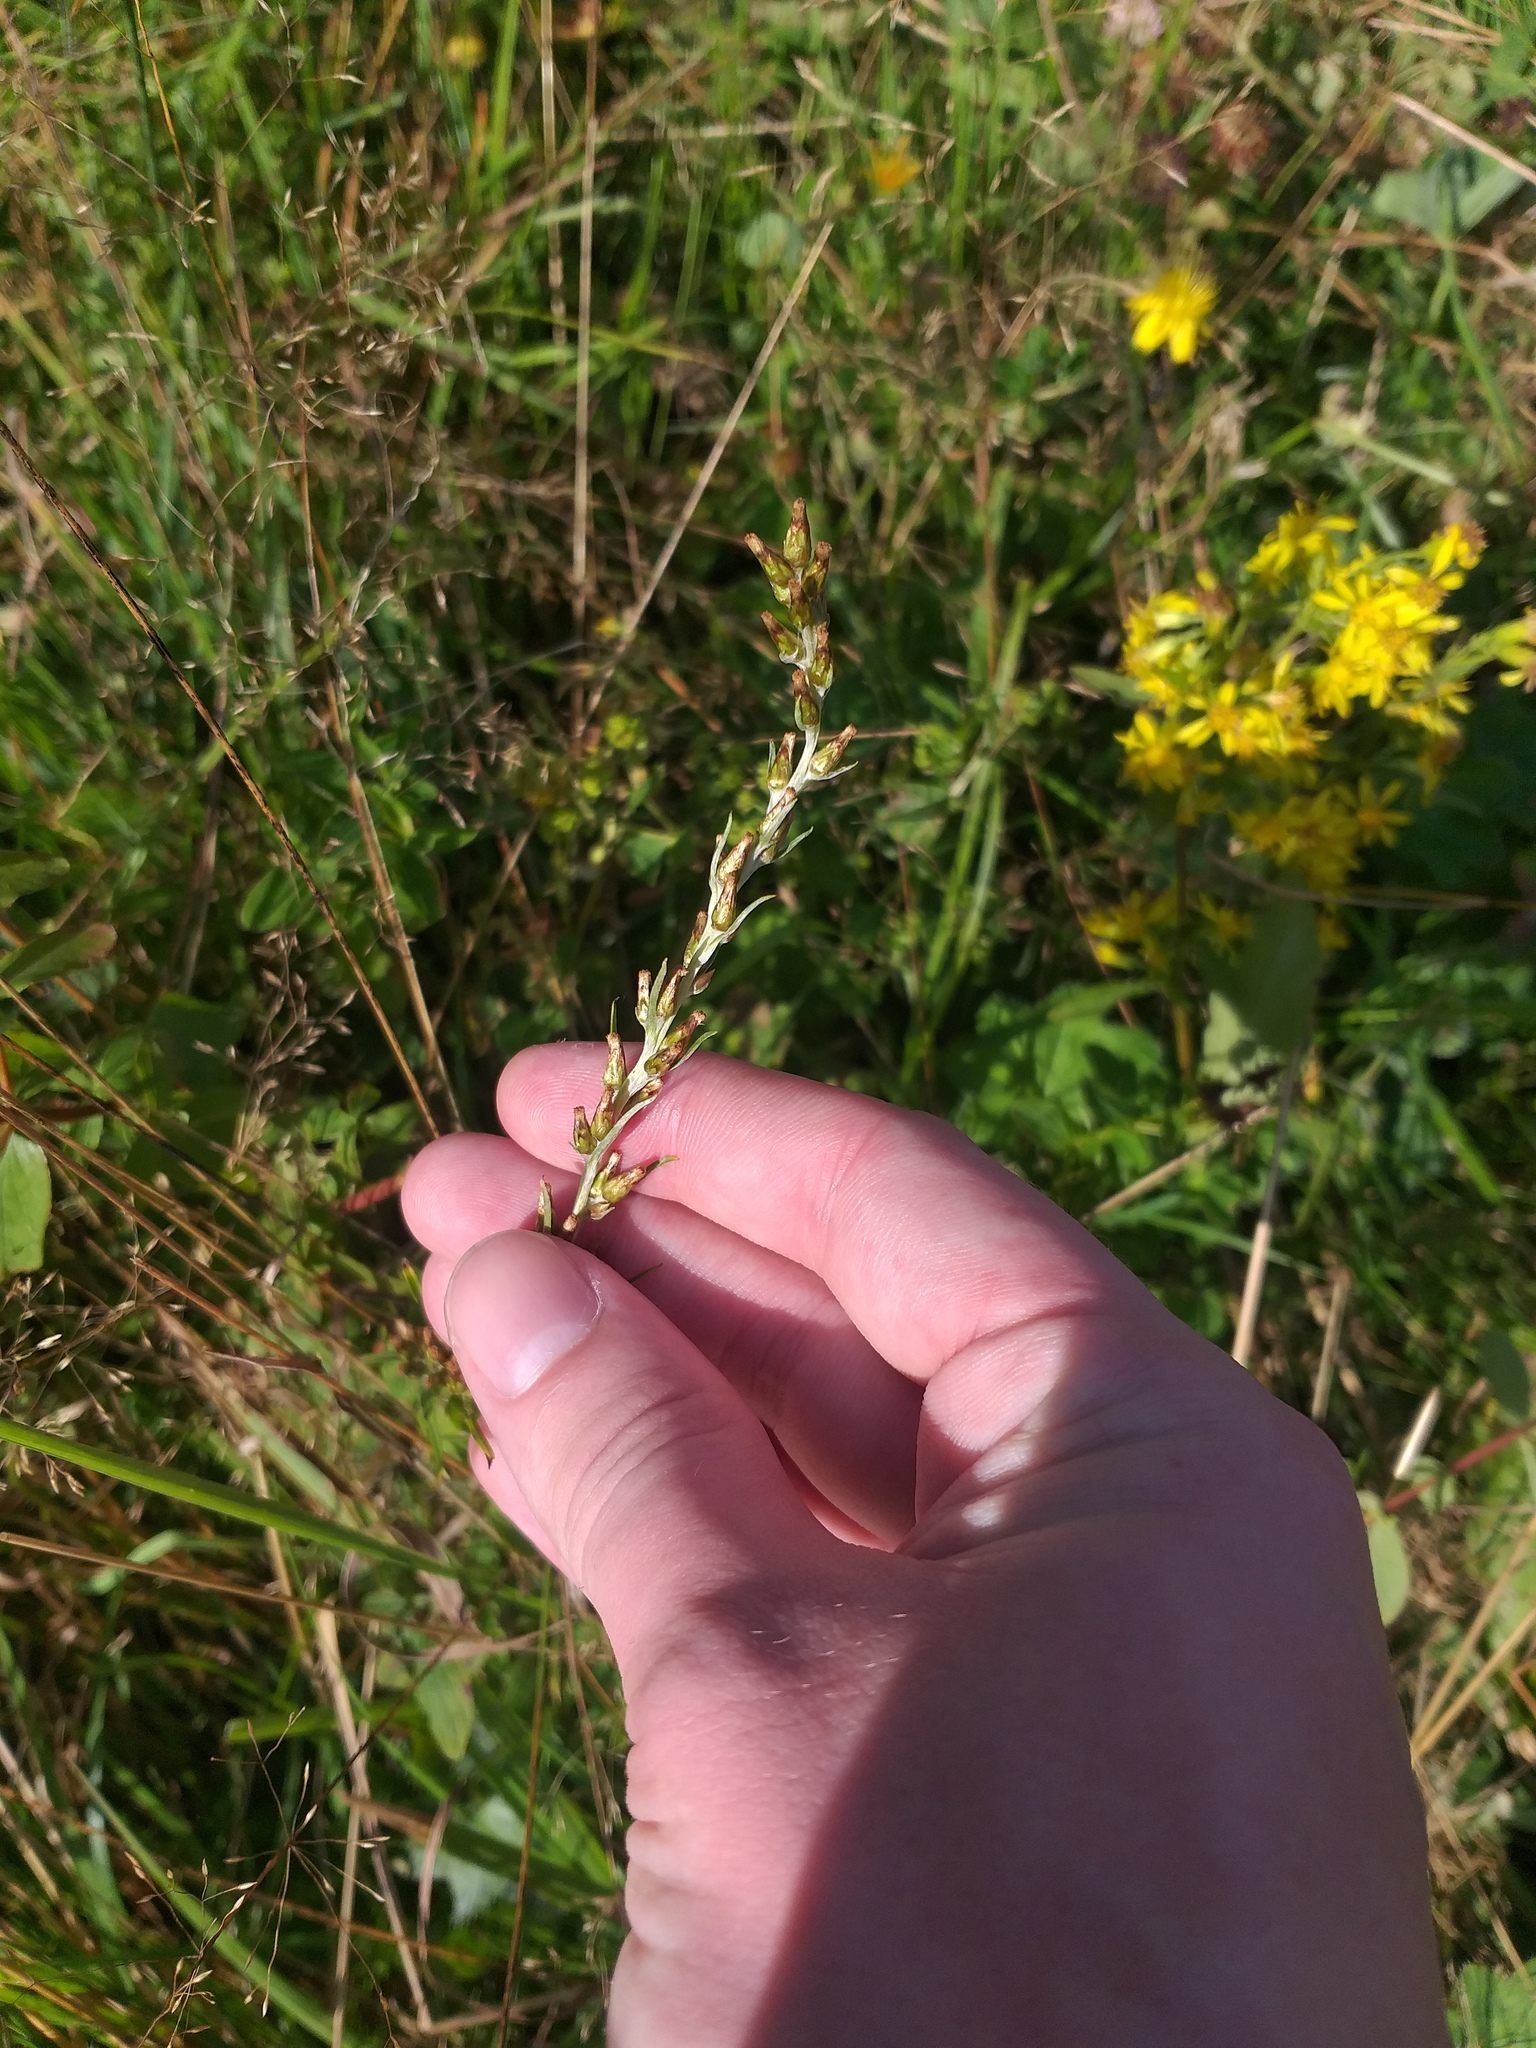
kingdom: Plantae
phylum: Tracheophyta
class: Magnoliopsida
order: Asterales
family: Asteraceae
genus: Omalotheca
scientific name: Omalotheca sylvatica
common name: Heath cudweed
